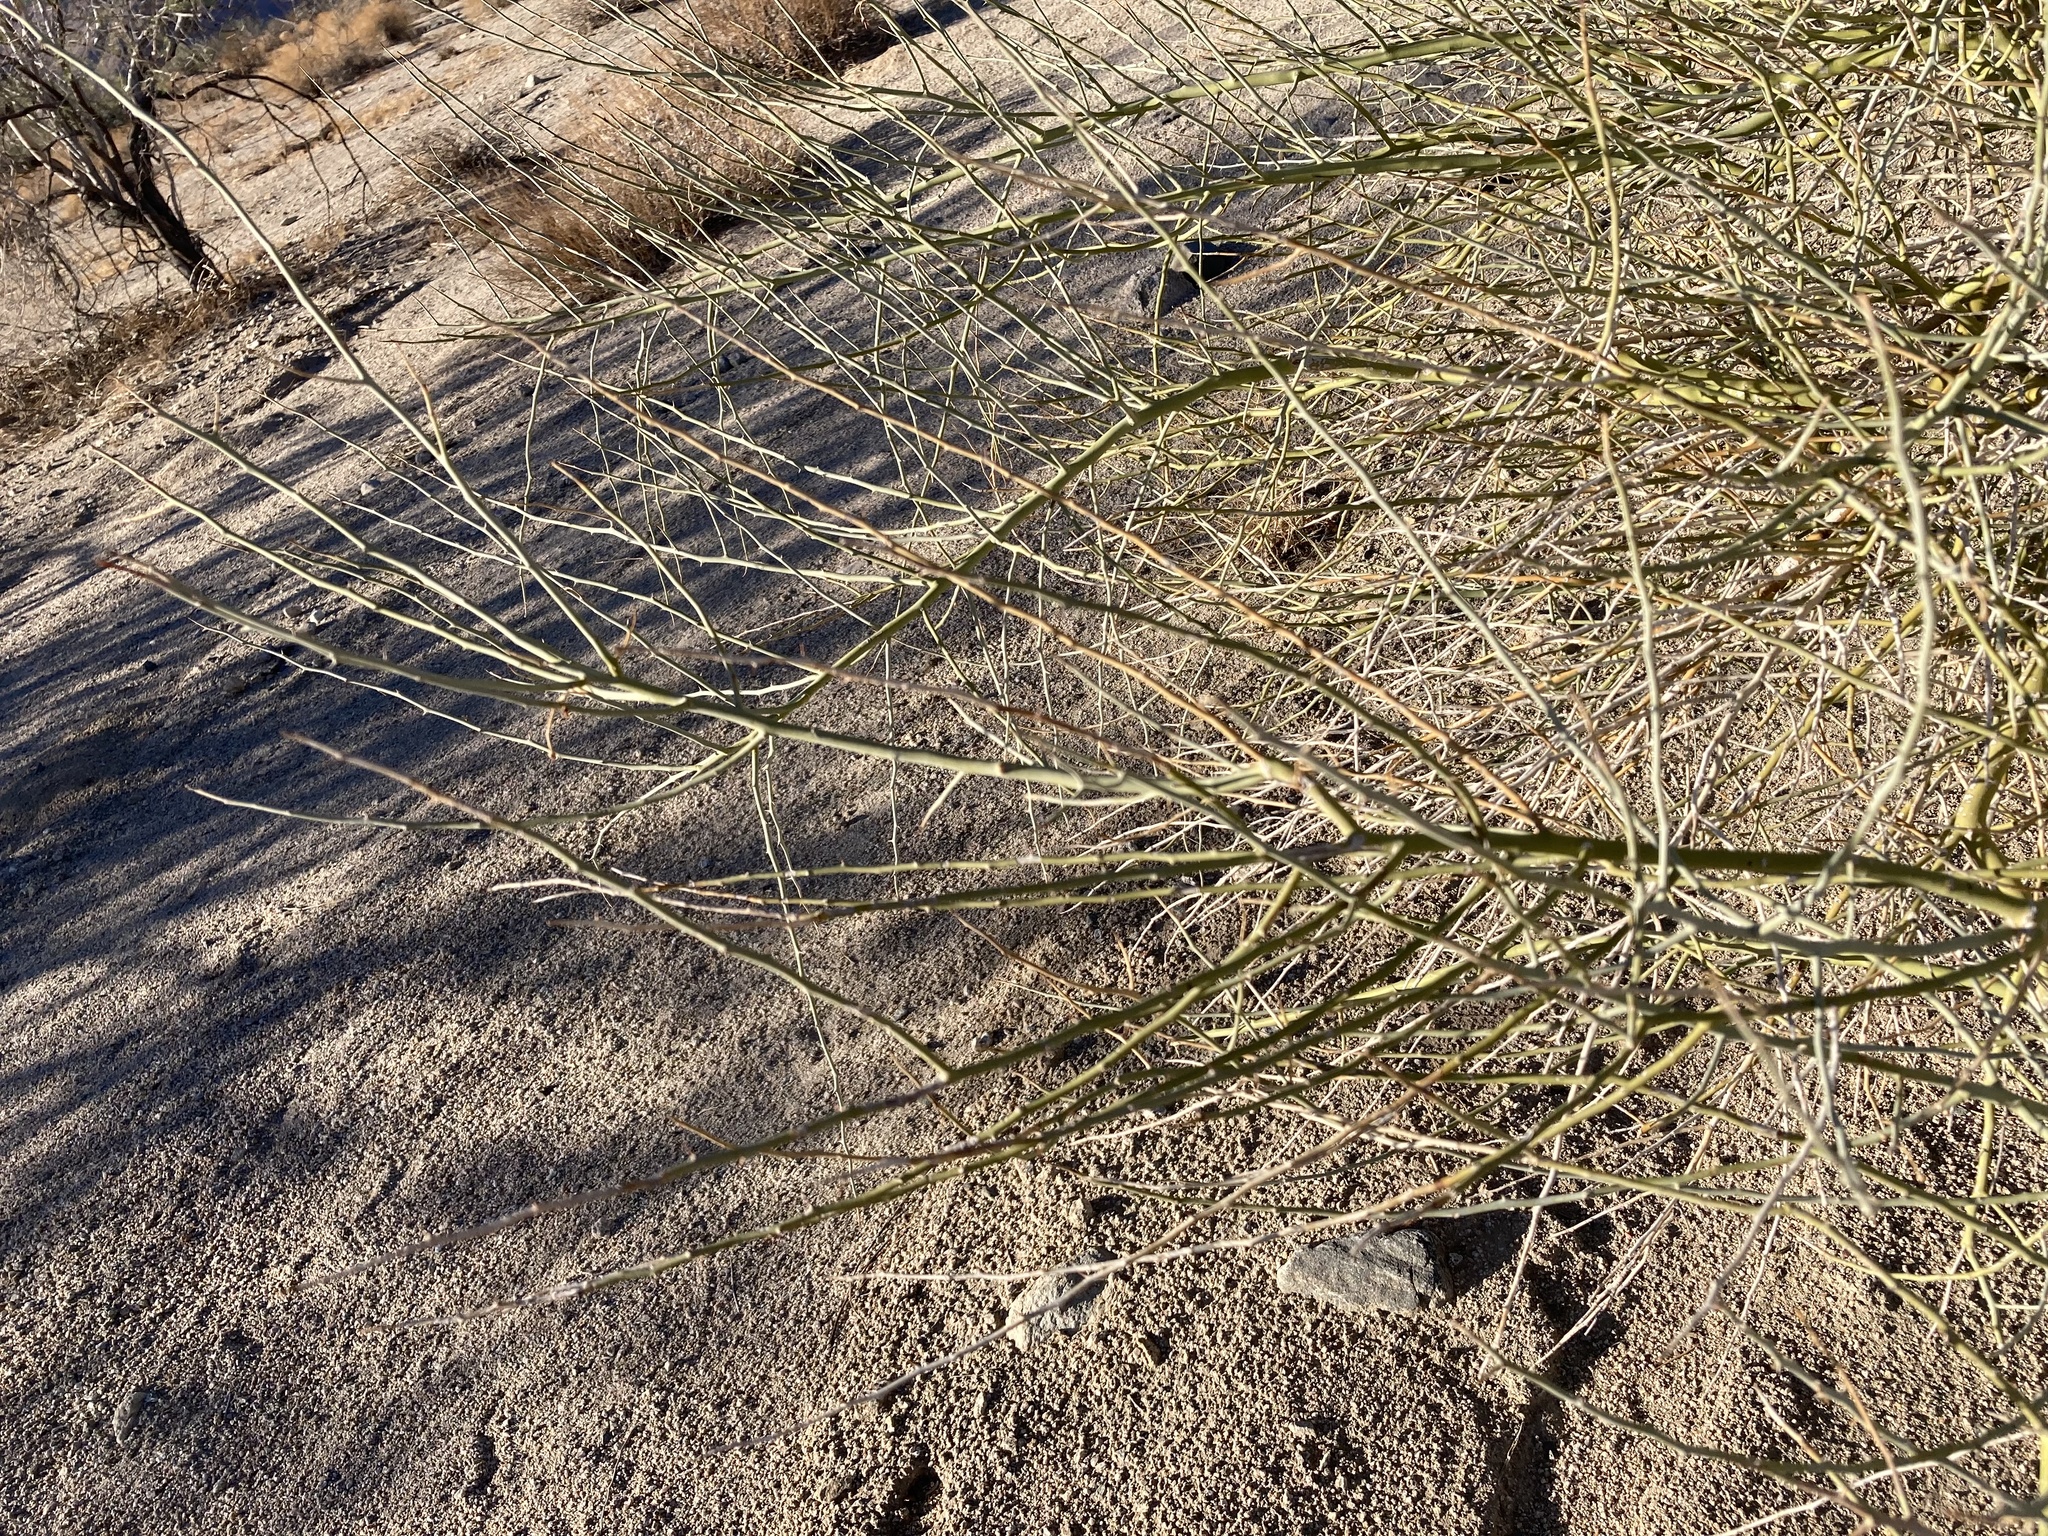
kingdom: Plantae
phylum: Tracheophyta
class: Magnoliopsida
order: Fabales
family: Fabaceae
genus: Parkinsonia
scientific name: Parkinsonia florida
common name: Blue paloverde
